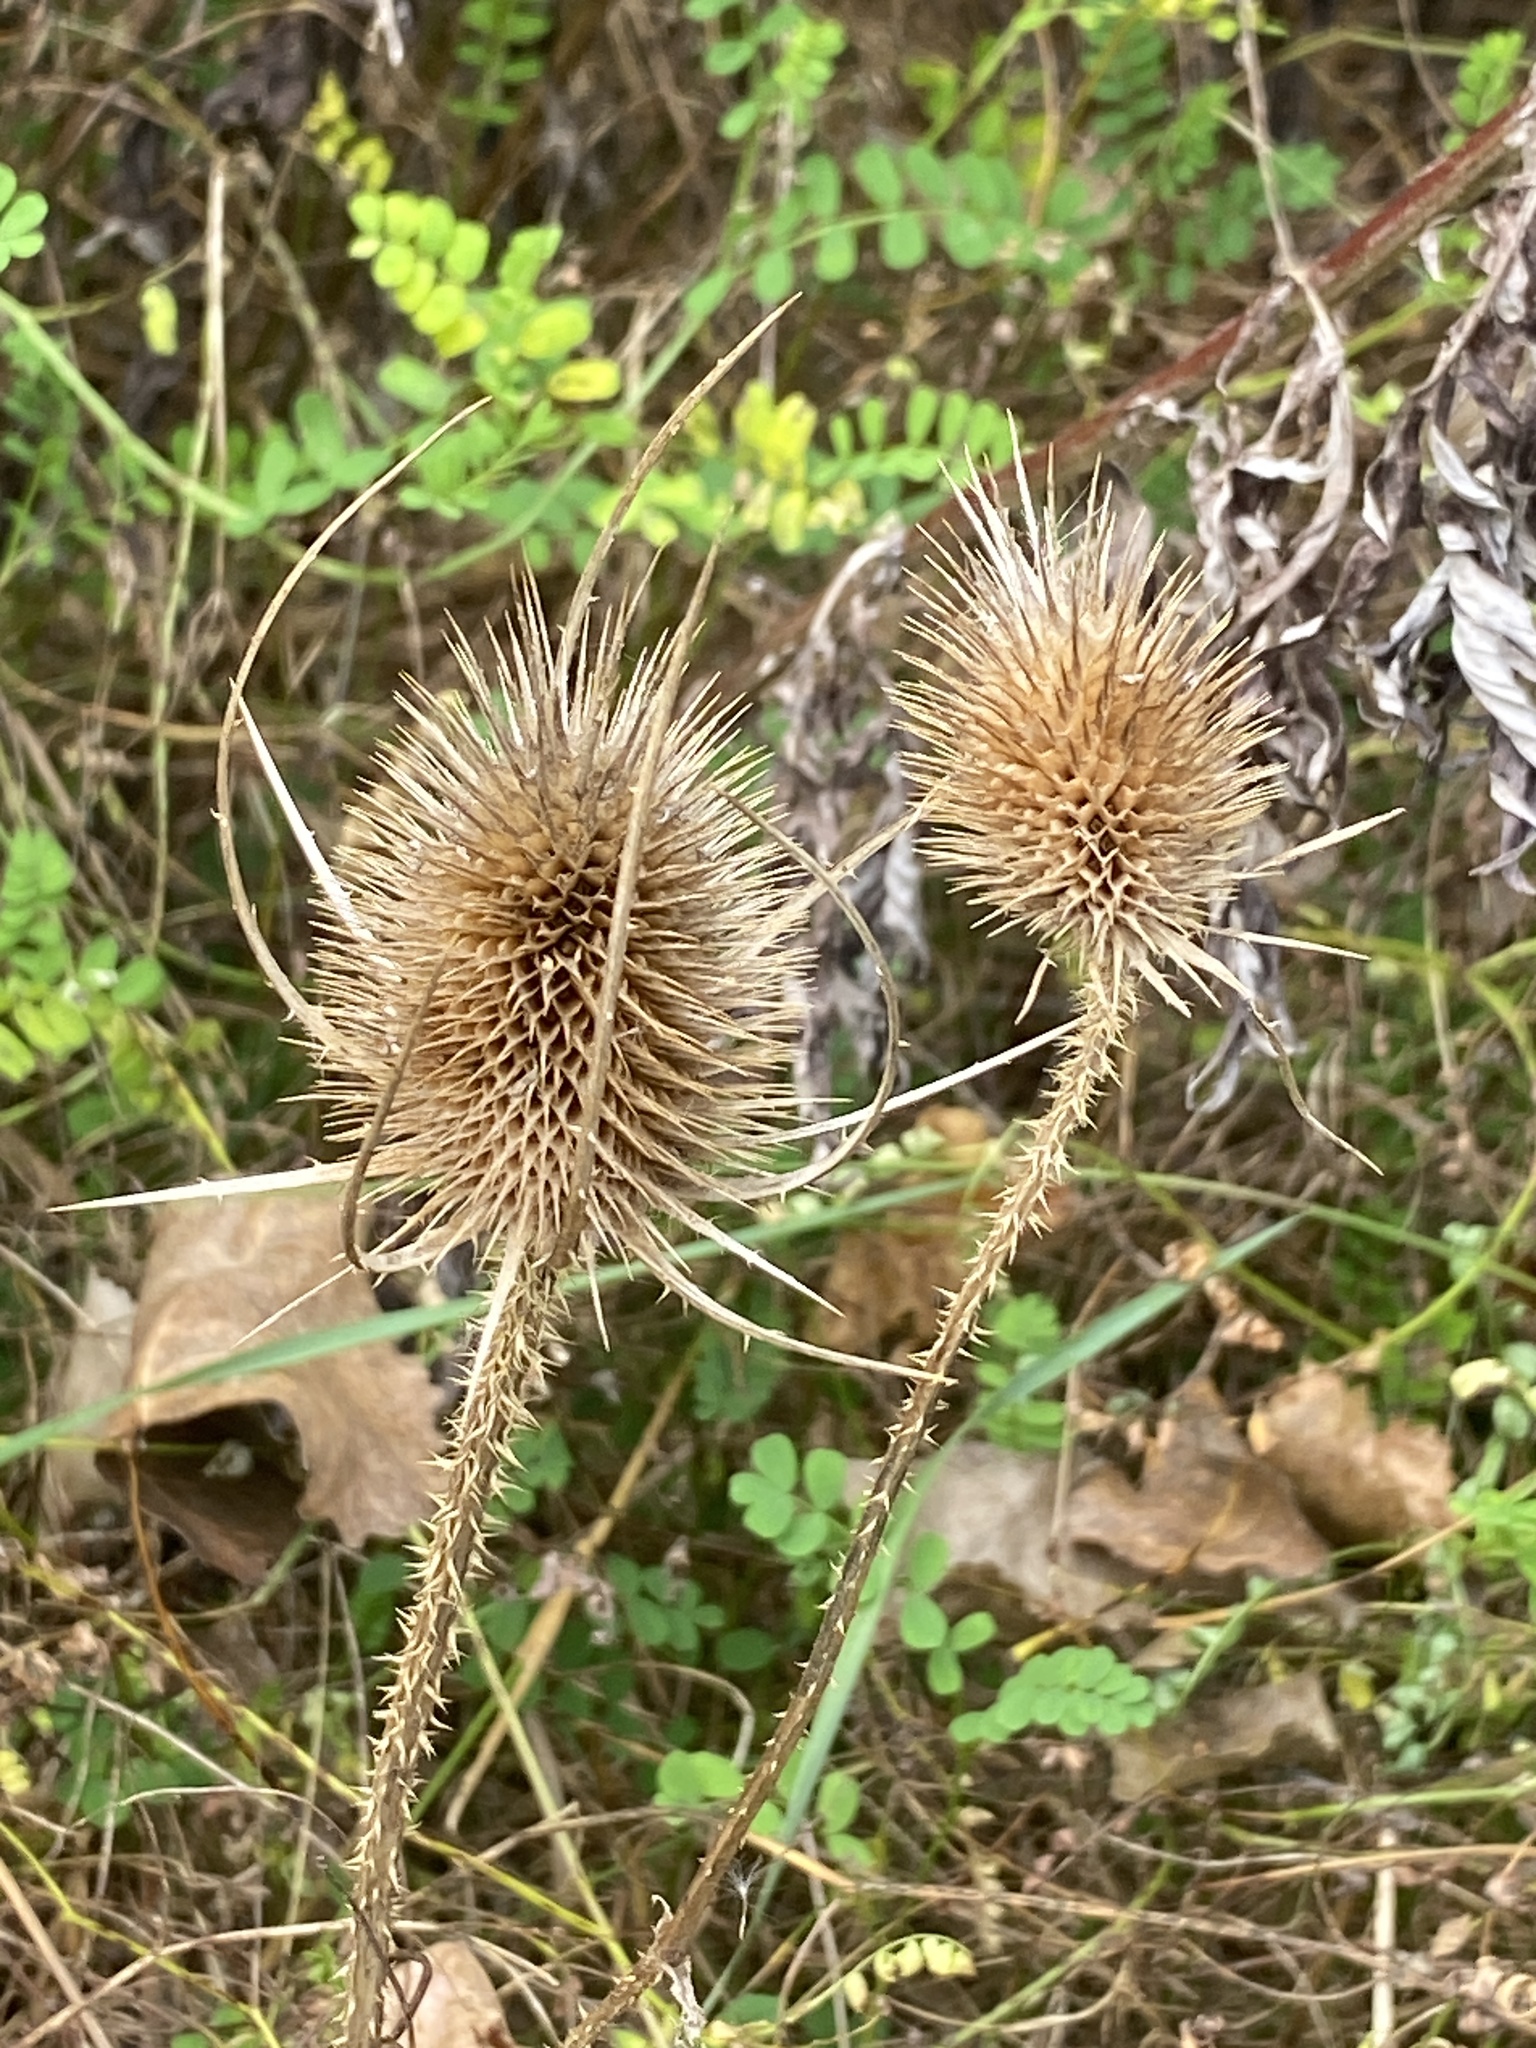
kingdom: Plantae
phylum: Tracheophyta
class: Magnoliopsida
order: Dipsacales
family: Caprifoliaceae
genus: Dipsacus
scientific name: Dipsacus fullonum
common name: Teasel
